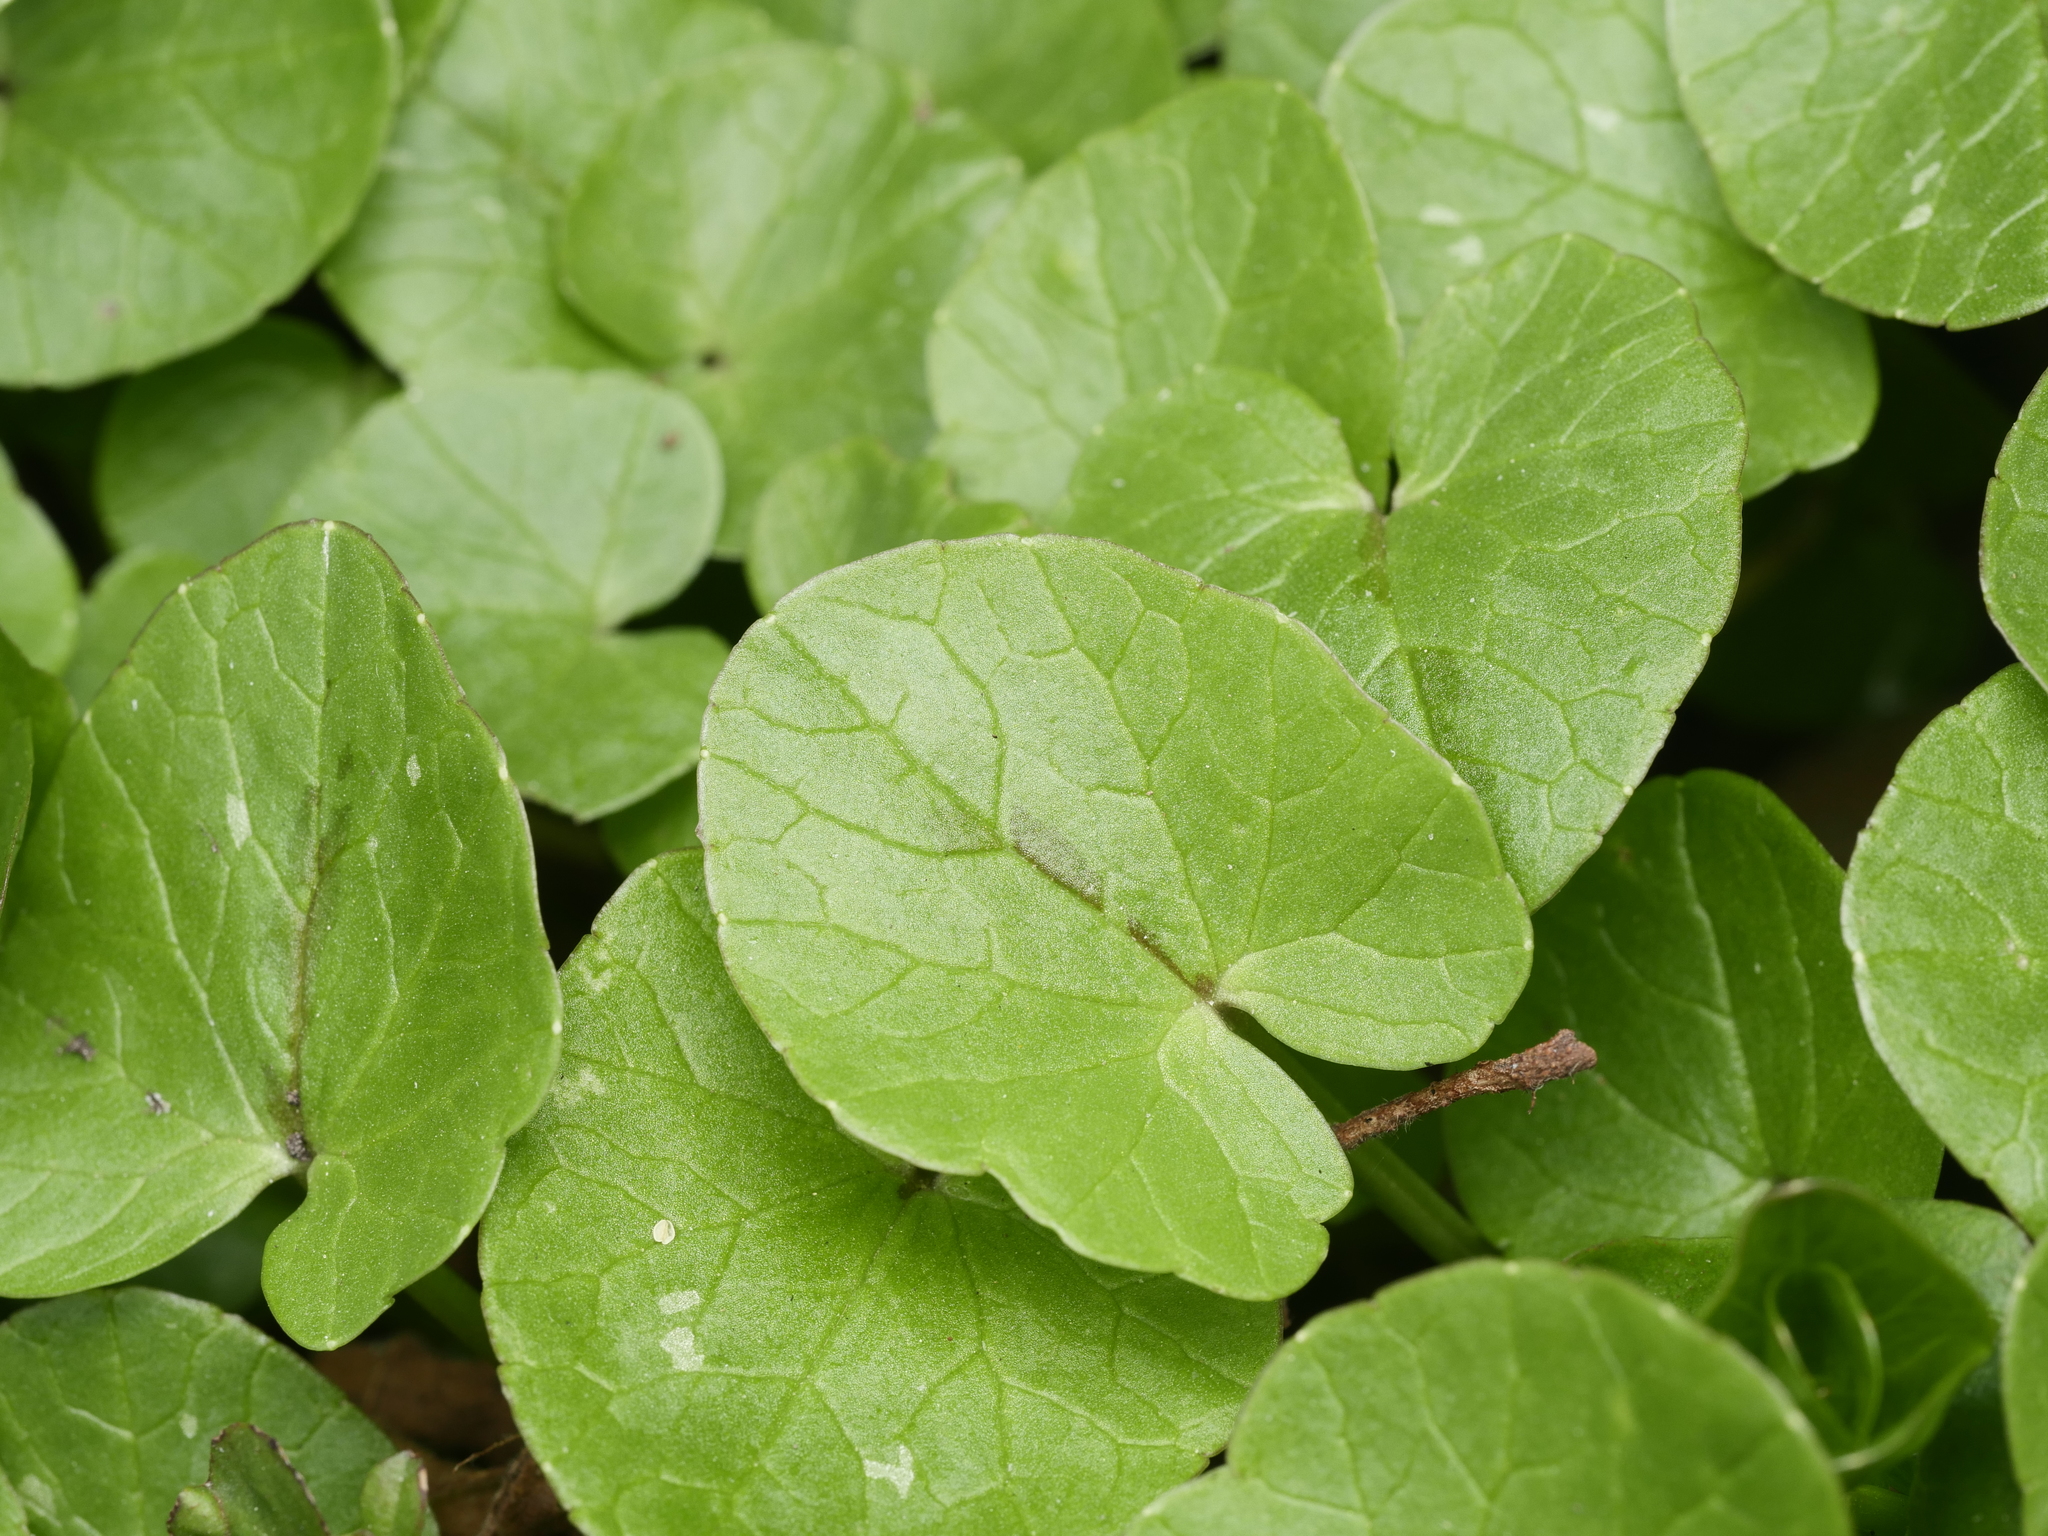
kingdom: Plantae
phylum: Tracheophyta
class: Magnoliopsida
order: Ranunculales
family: Ranunculaceae
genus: Ficaria
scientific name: Ficaria verna
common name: Lesser celandine
